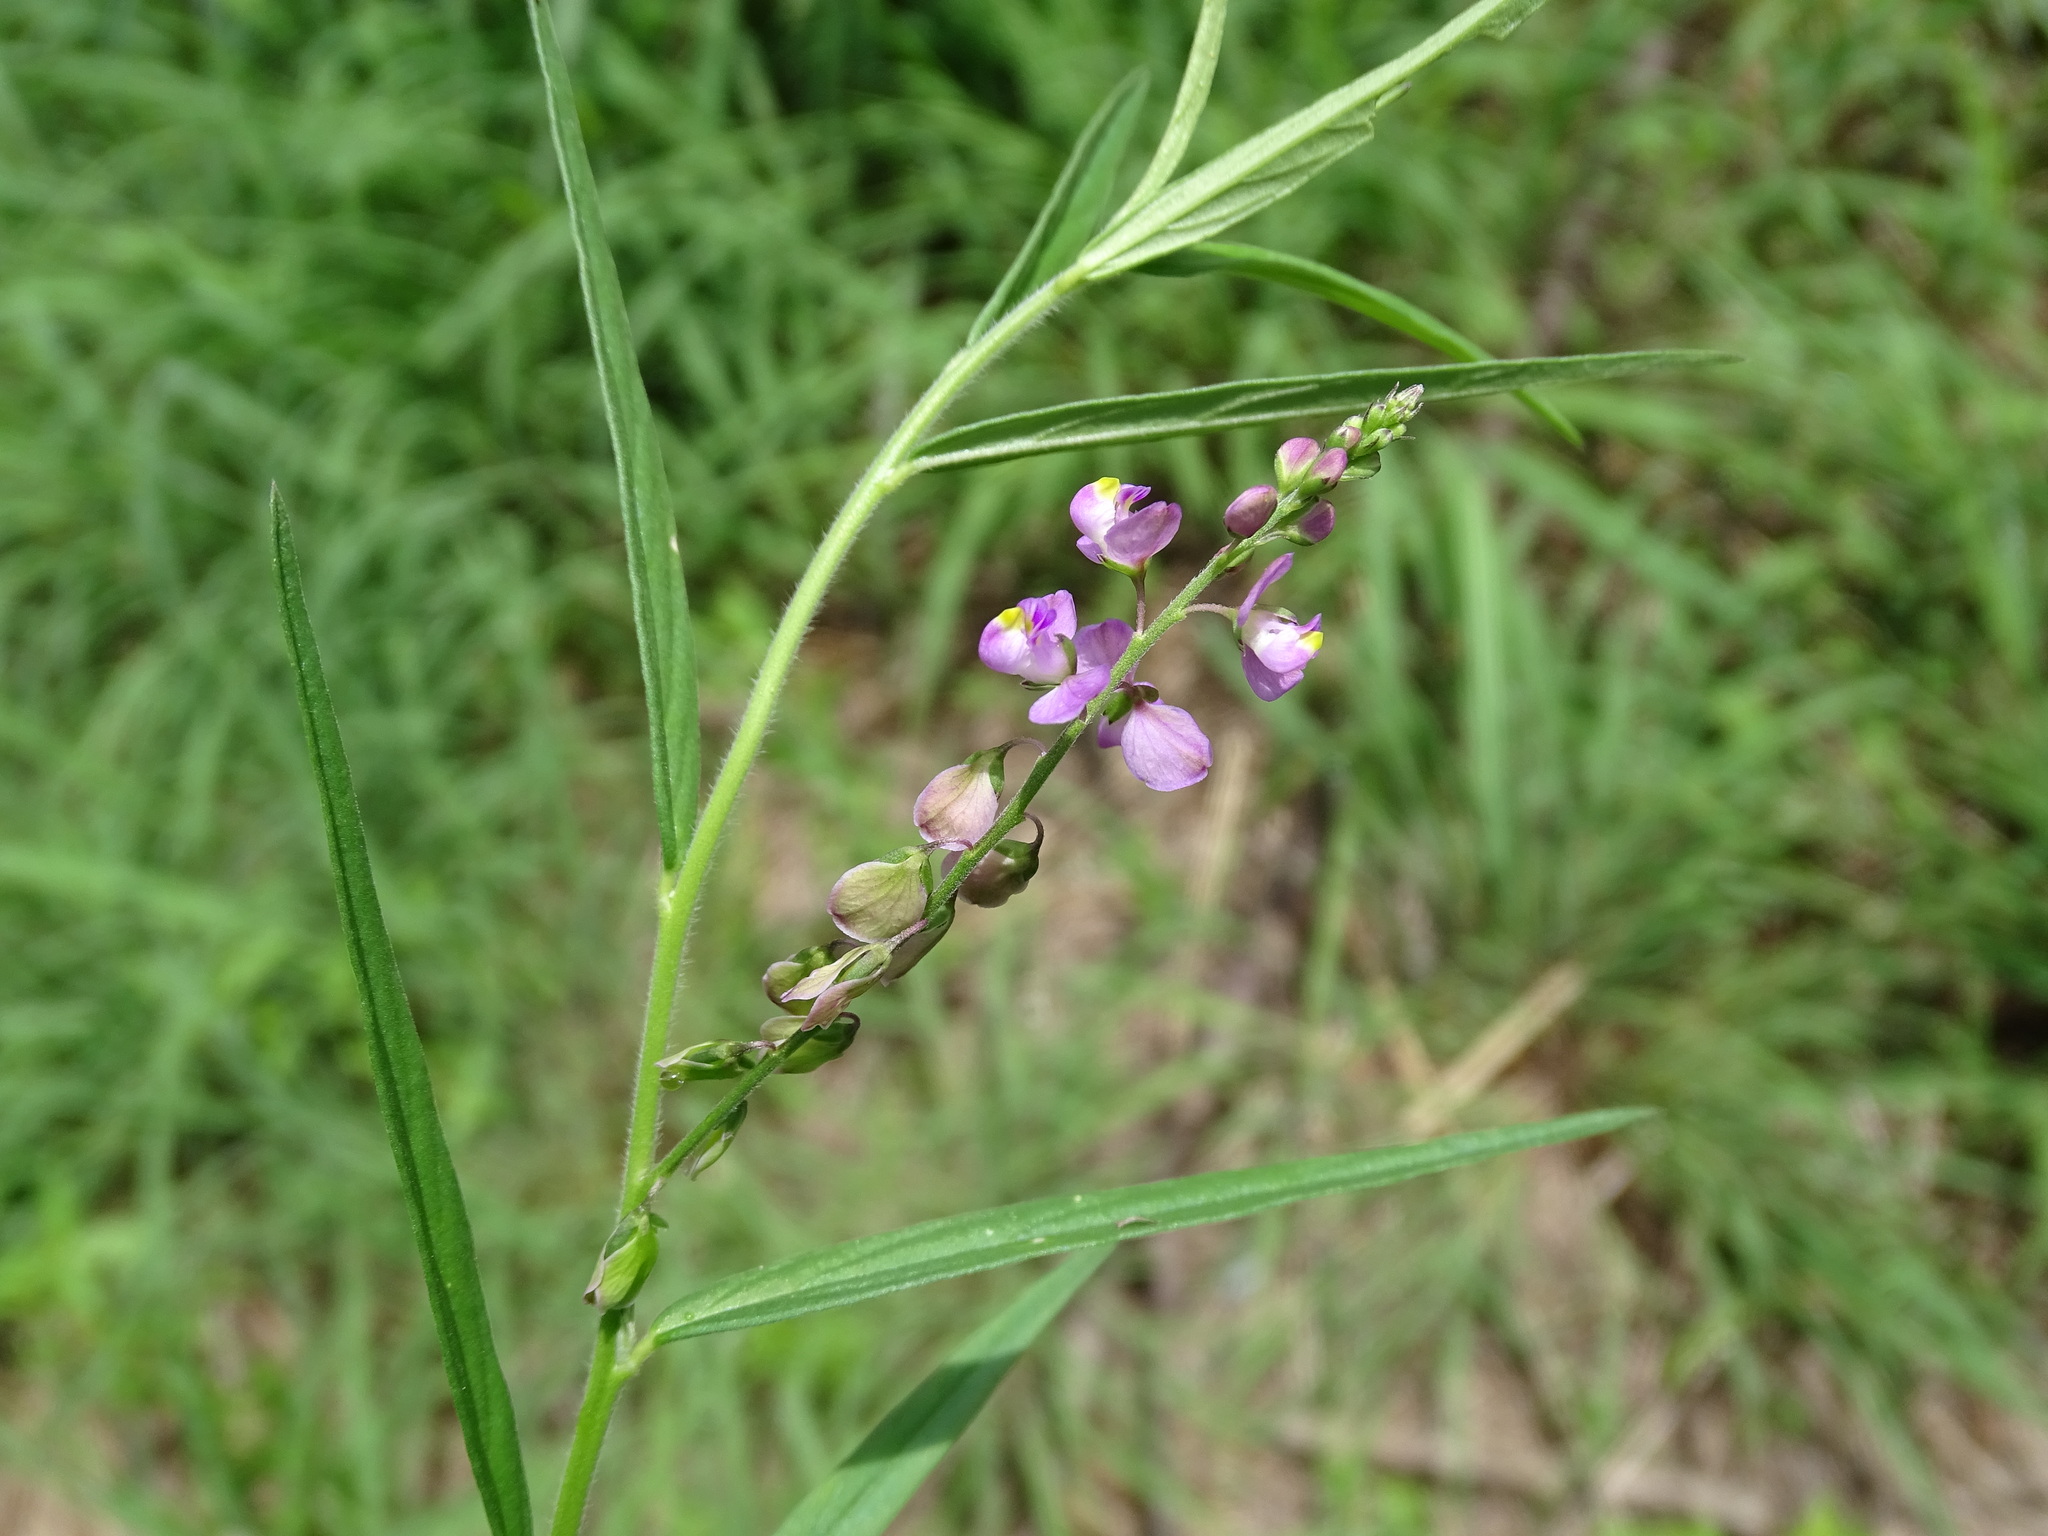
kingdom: Plantae
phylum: Tracheophyta
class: Magnoliopsida
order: Fabales
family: Polygalaceae
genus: Asemeia
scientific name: Asemeia violacea
